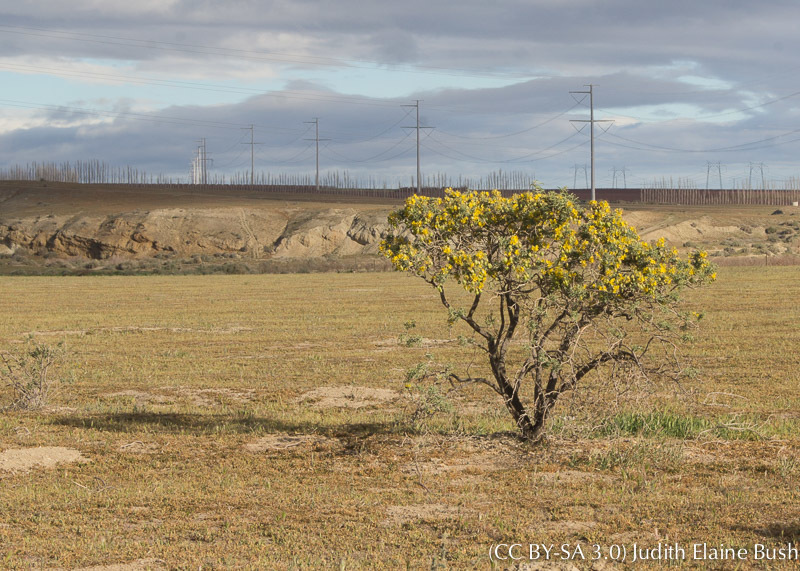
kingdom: Plantae
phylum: Tracheophyta
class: Magnoliopsida
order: Brassicales
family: Cleomaceae
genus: Cleomella
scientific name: Cleomella arborea
